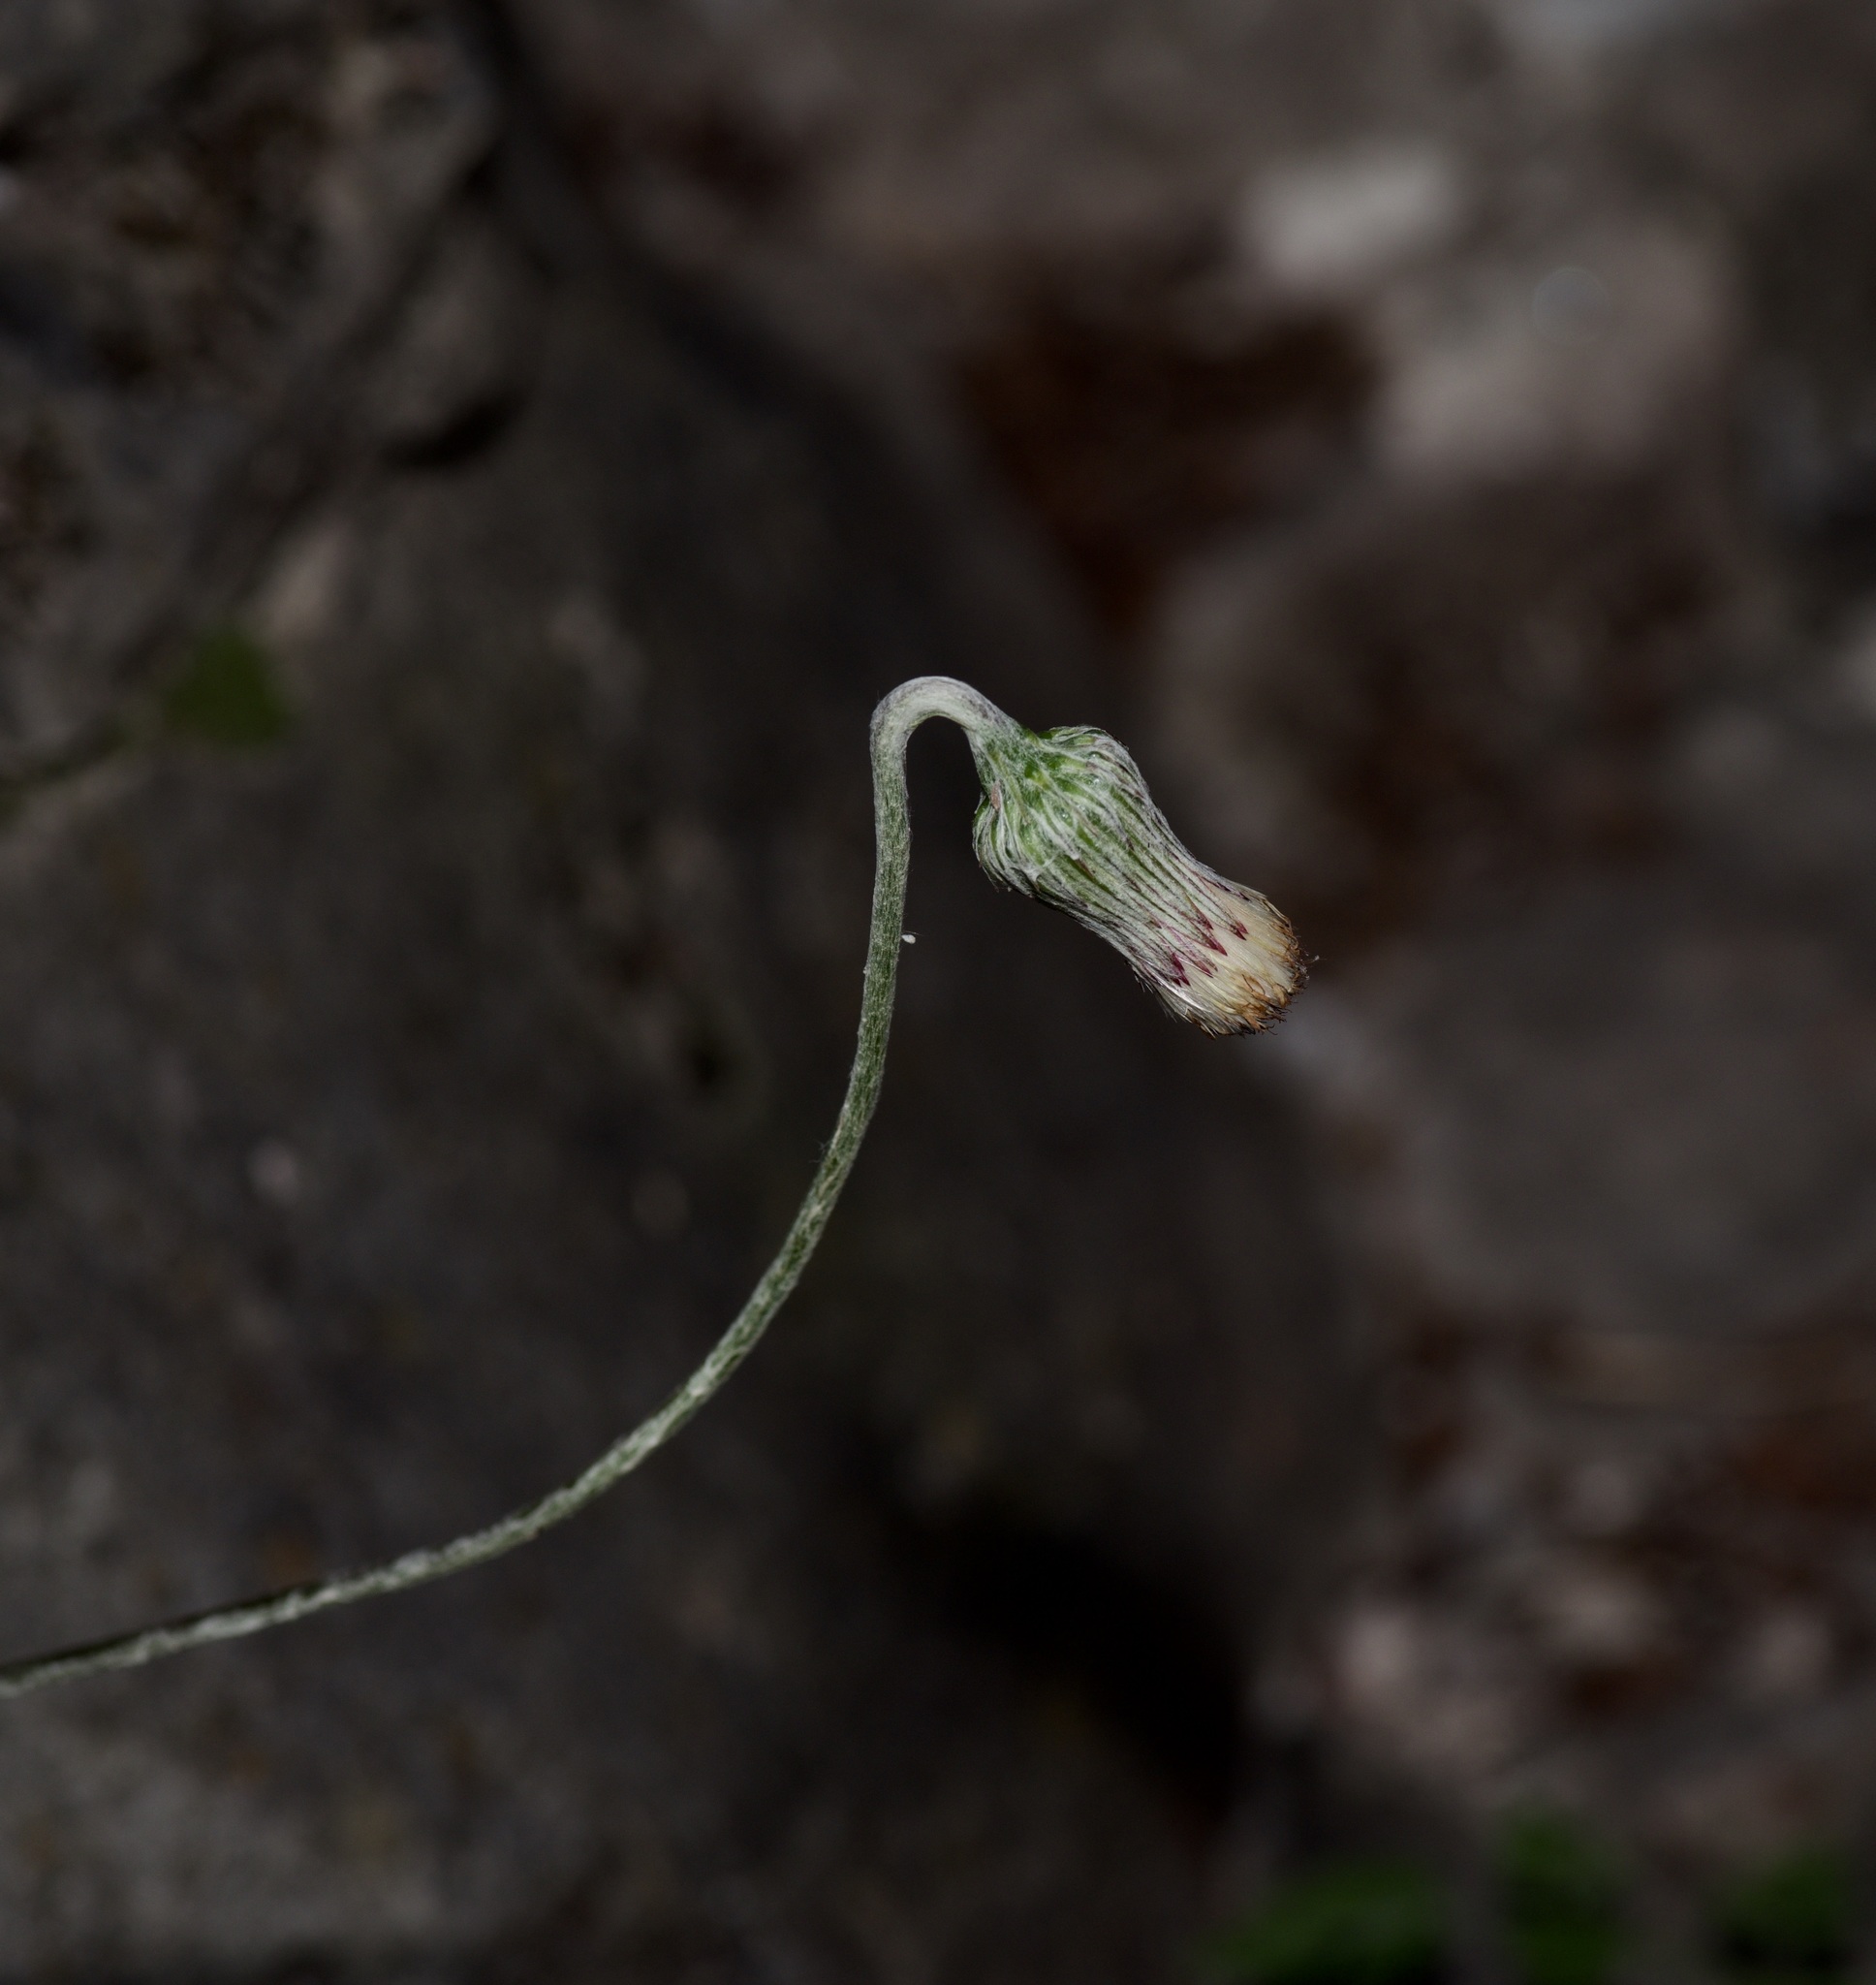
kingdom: Plantae
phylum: Tracheophyta
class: Magnoliopsida
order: Asterales
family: Asteraceae
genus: Chaptalia
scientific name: Chaptalia texana
